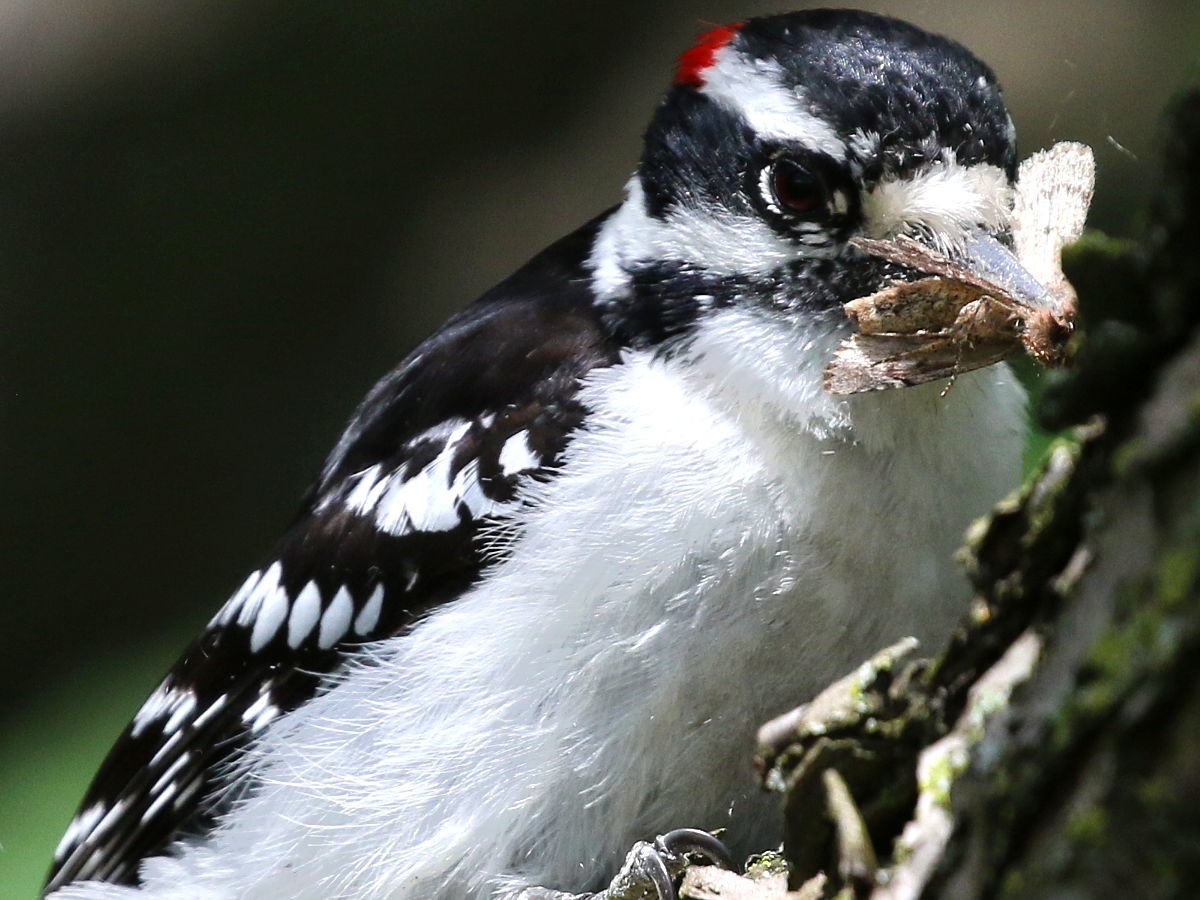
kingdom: Animalia
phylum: Chordata
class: Aves
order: Piciformes
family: Picidae
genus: Dryobates
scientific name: Dryobates pubescens
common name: Downy woodpecker
